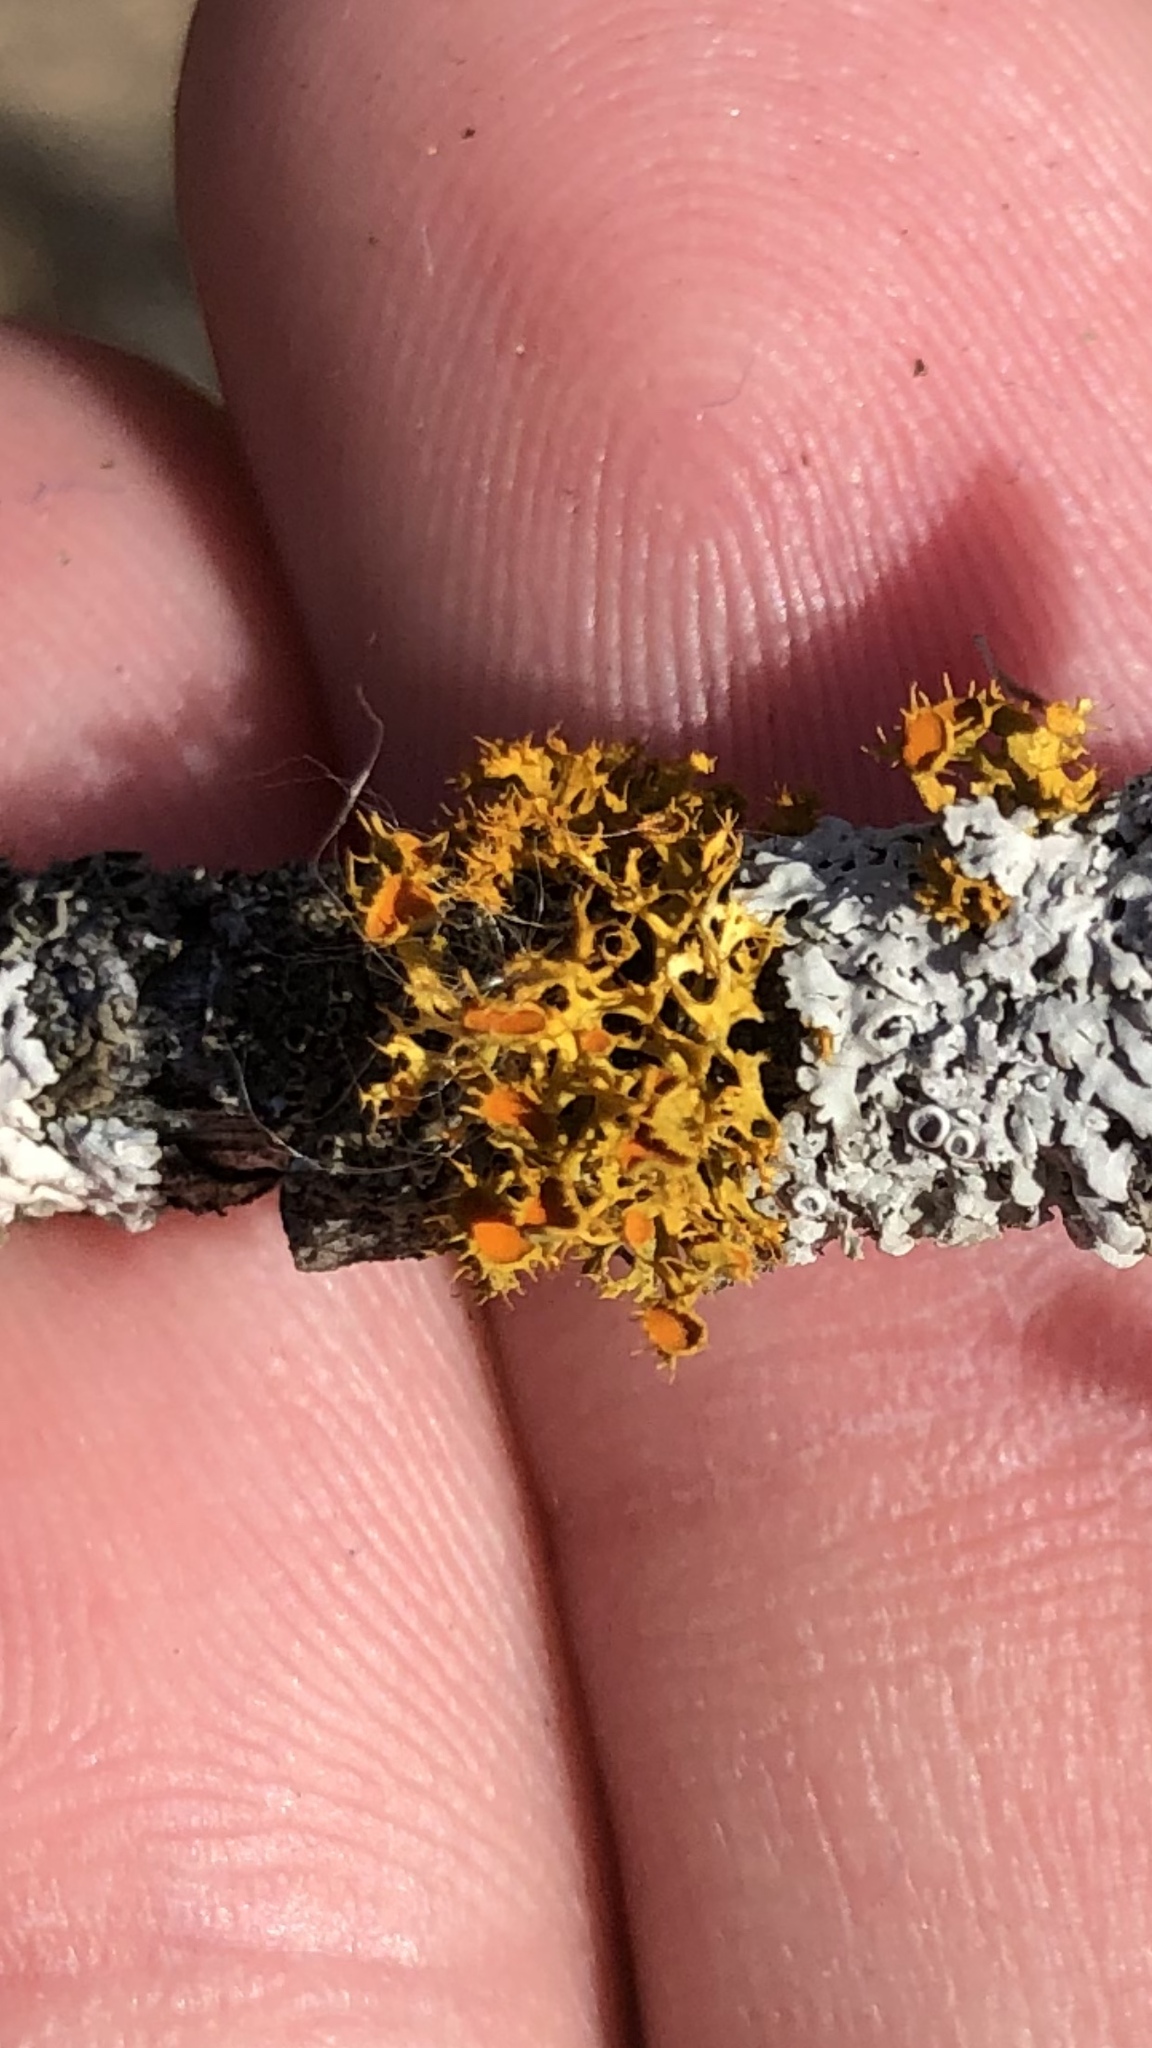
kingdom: Fungi
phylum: Ascomycota
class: Lecanoromycetes
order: Teloschistales
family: Teloschistaceae
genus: Niorma
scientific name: Niorma chrysophthalma
